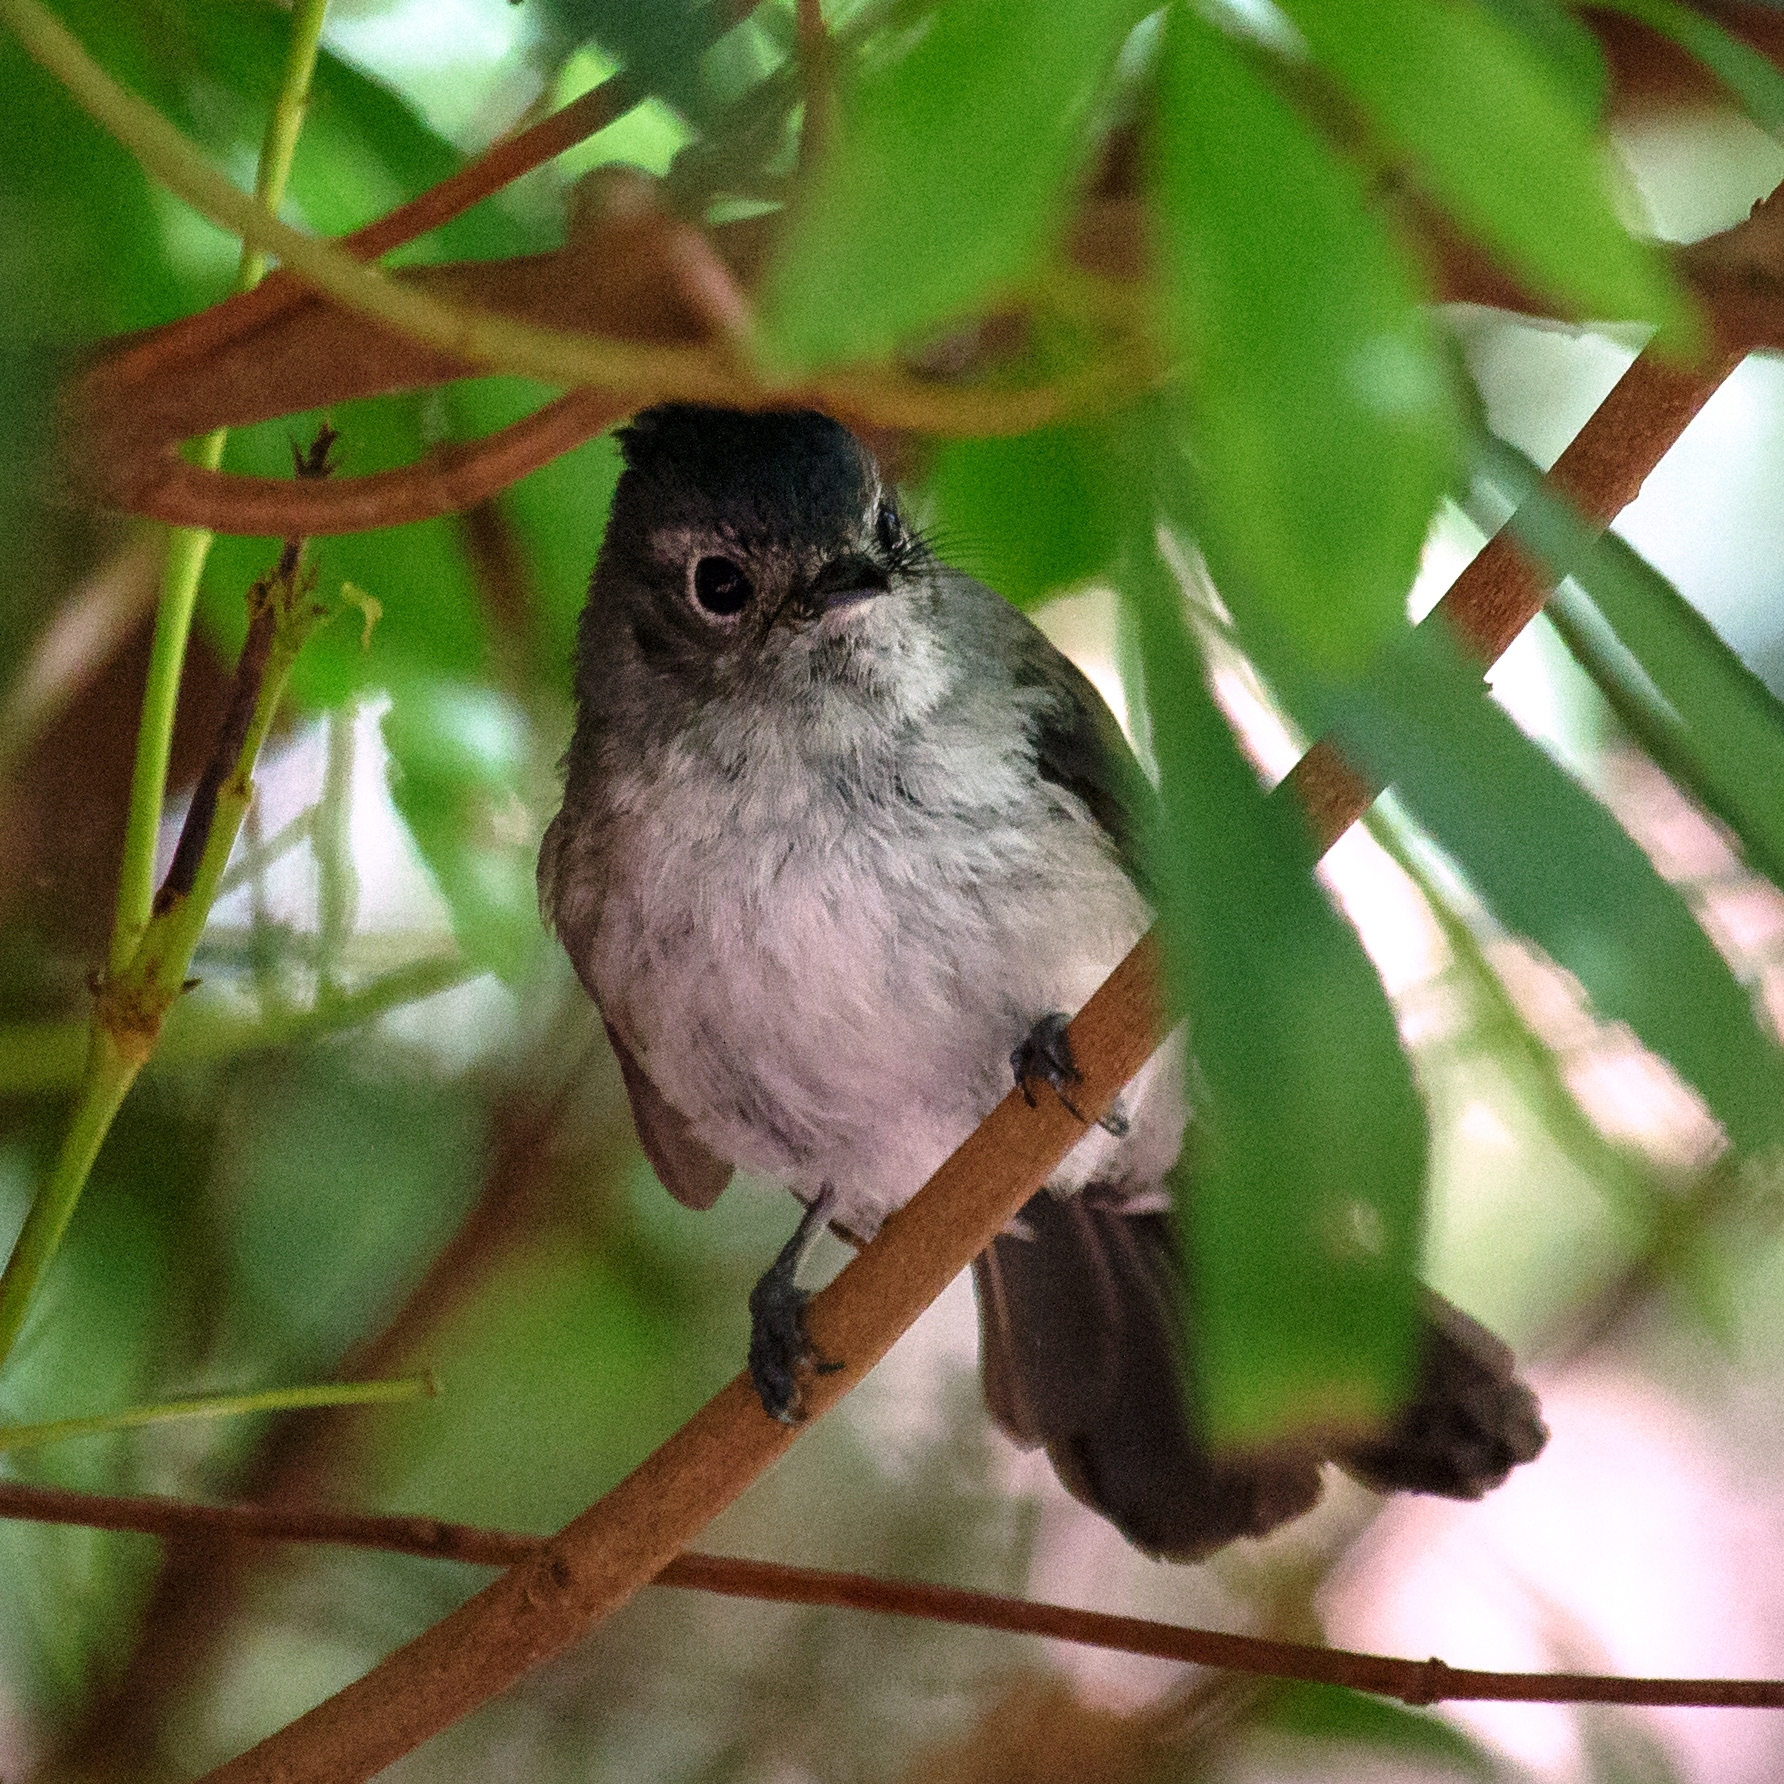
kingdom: Animalia
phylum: Chordata
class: Aves
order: Passeriformes
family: Monarchidae
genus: Trochocercus
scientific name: Trochocercus cyanomelas
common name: Blue-mantled crested flycatcher
